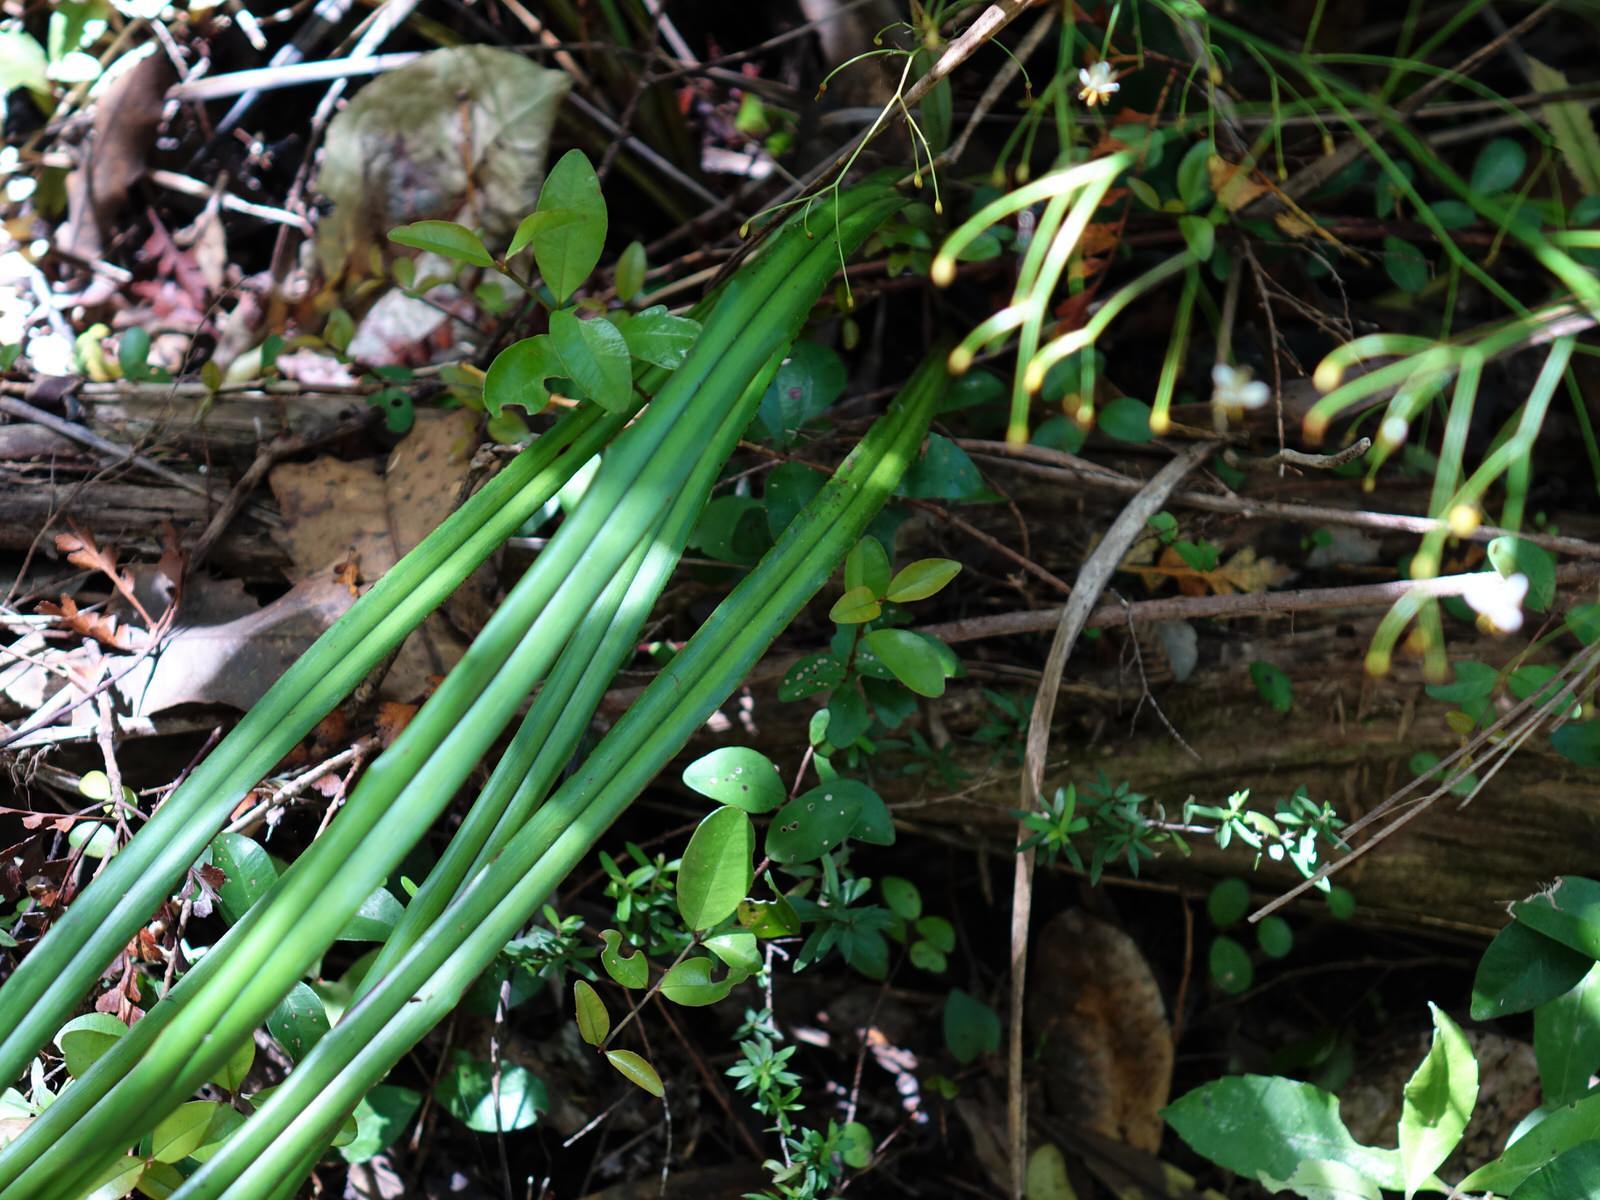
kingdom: Plantae
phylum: Tracheophyta
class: Liliopsida
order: Asparagales
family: Asphodelaceae
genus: Dianella
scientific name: Dianella nigra
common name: New zealand-blueberry
